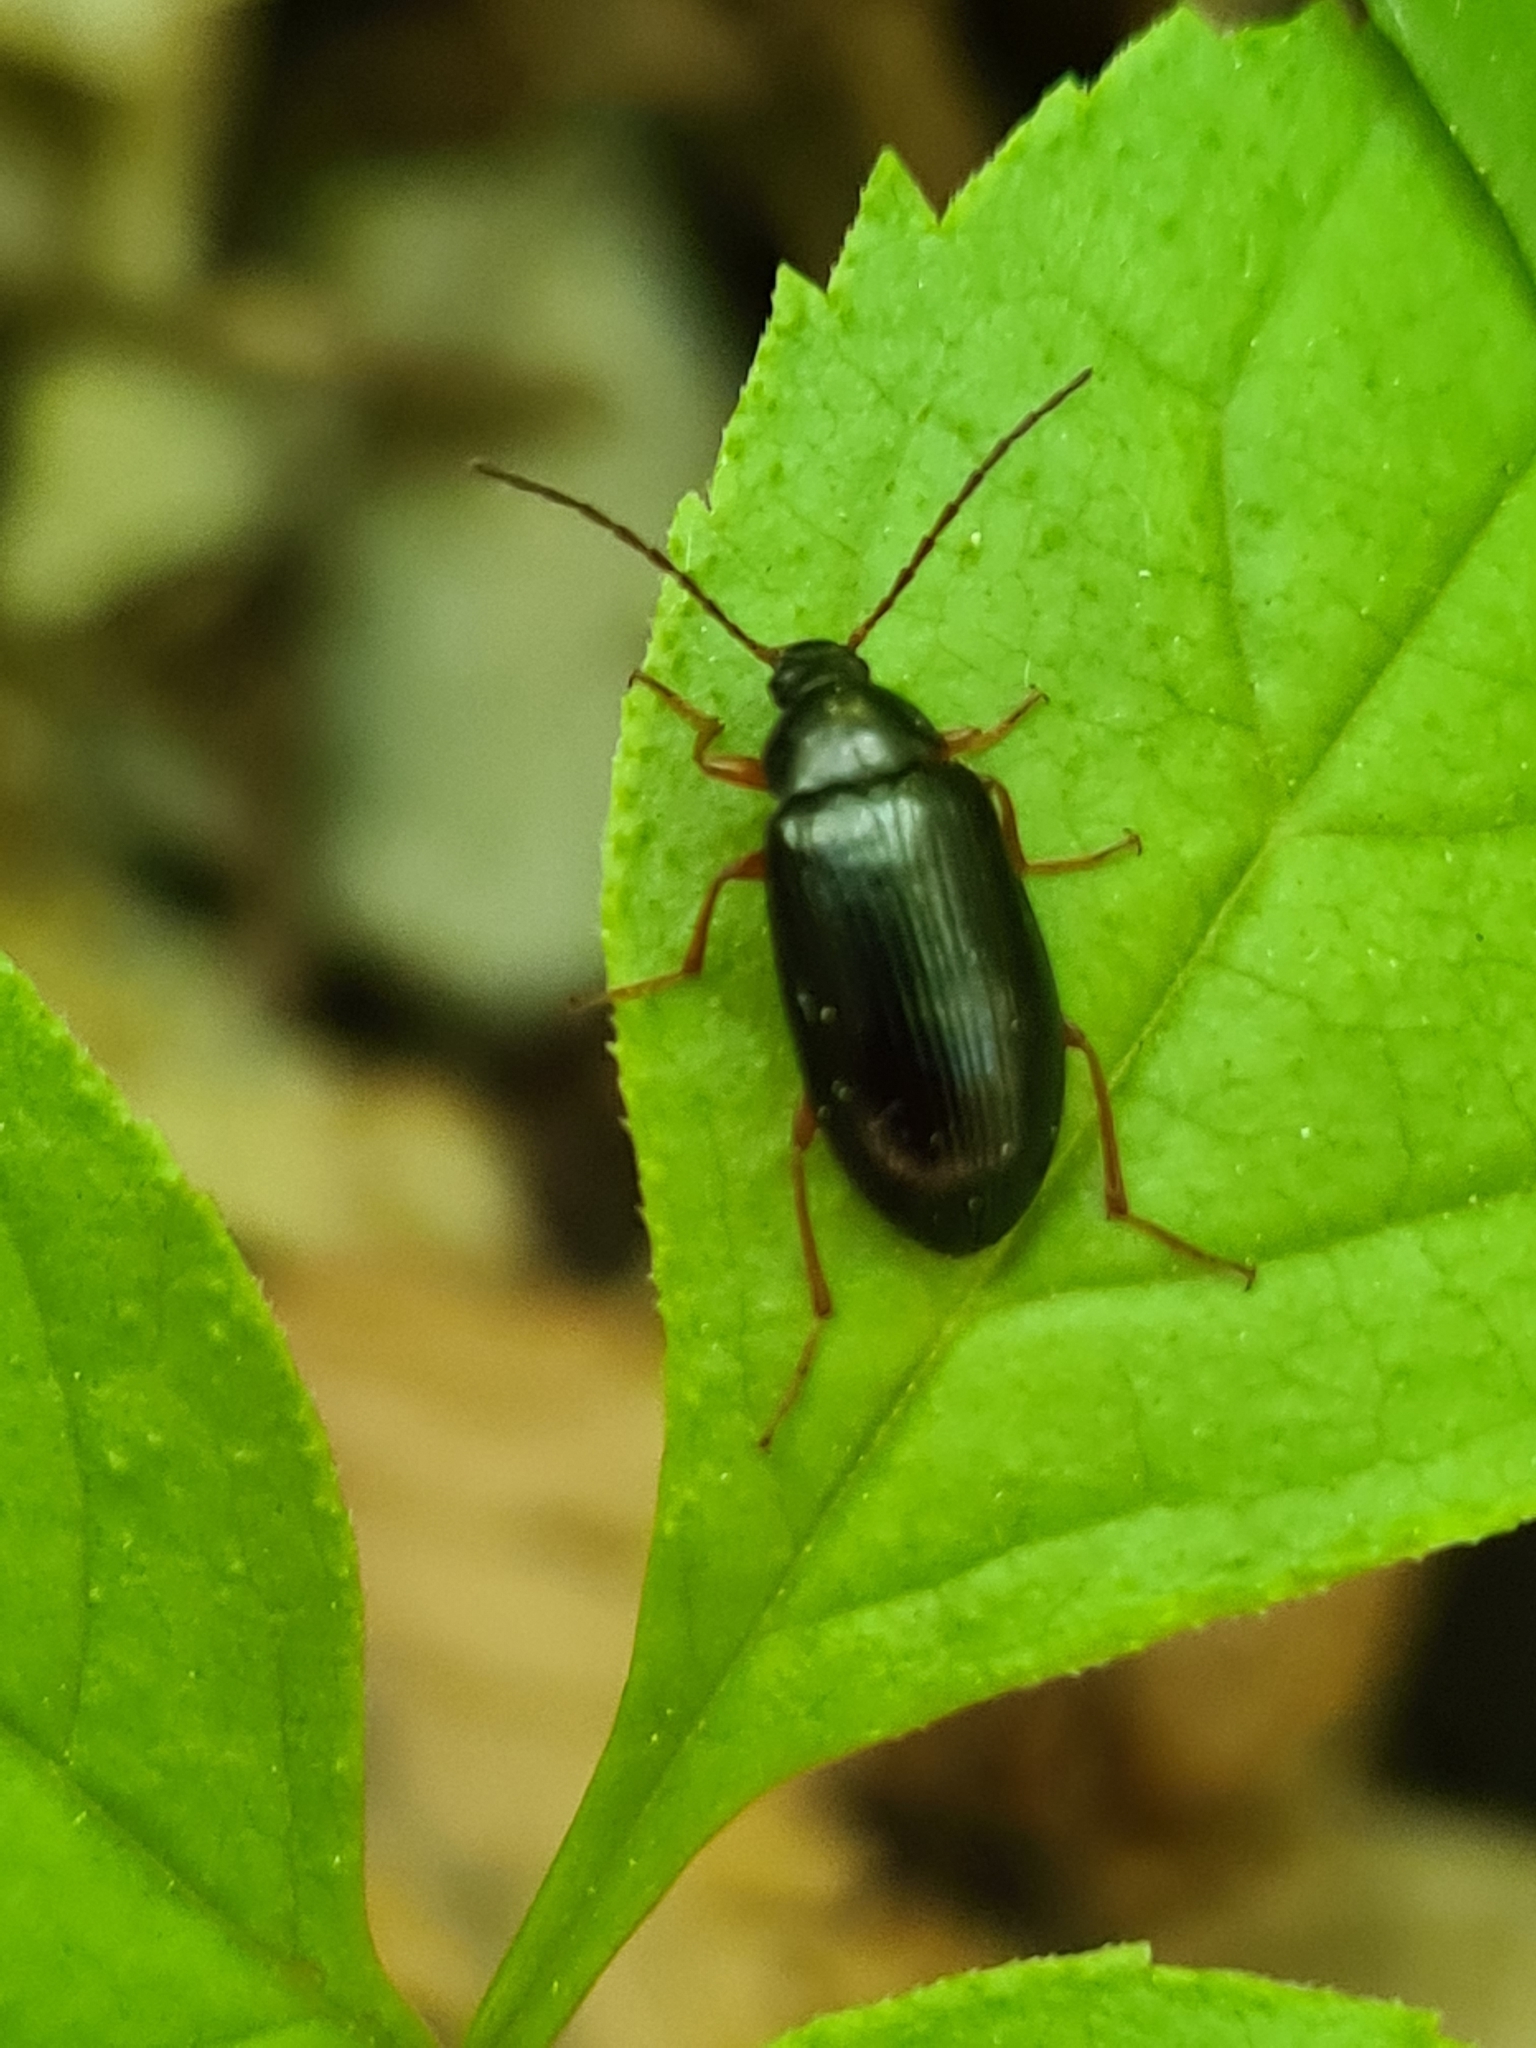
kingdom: Animalia
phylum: Arthropoda
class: Insecta
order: Coleoptera
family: Tenebrionidae
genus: Gonodera
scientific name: Gonodera luperus
